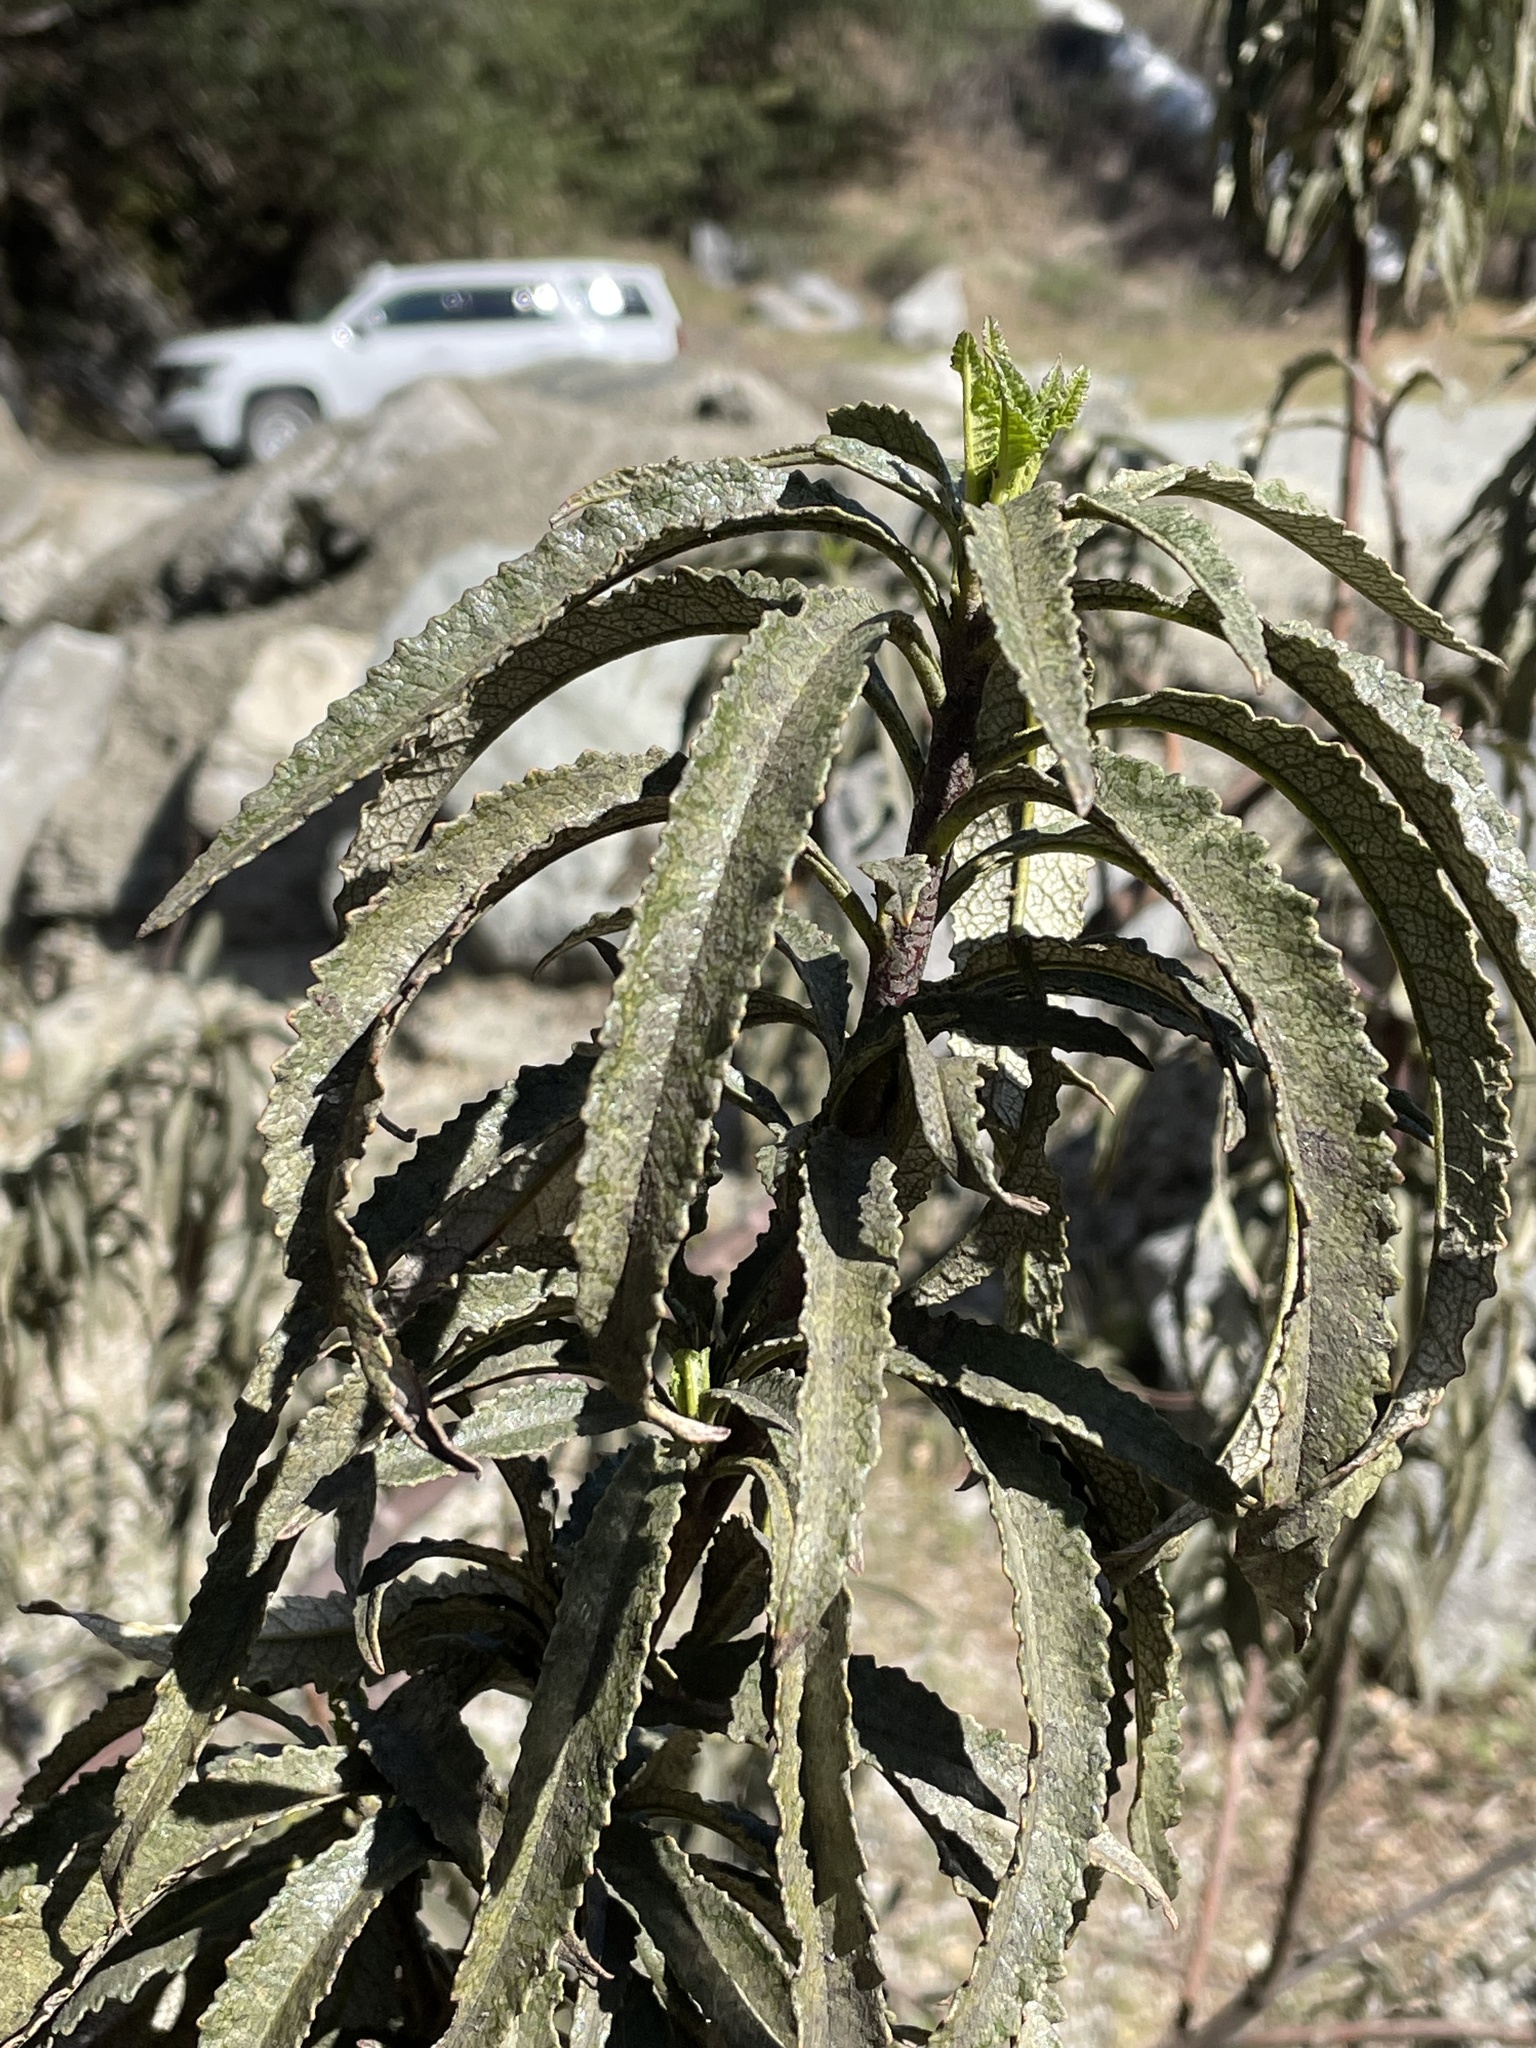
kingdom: Plantae
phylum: Tracheophyta
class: Magnoliopsida
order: Boraginales
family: Namaceae
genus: Eriodictyon
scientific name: Eriodictyon californicum
